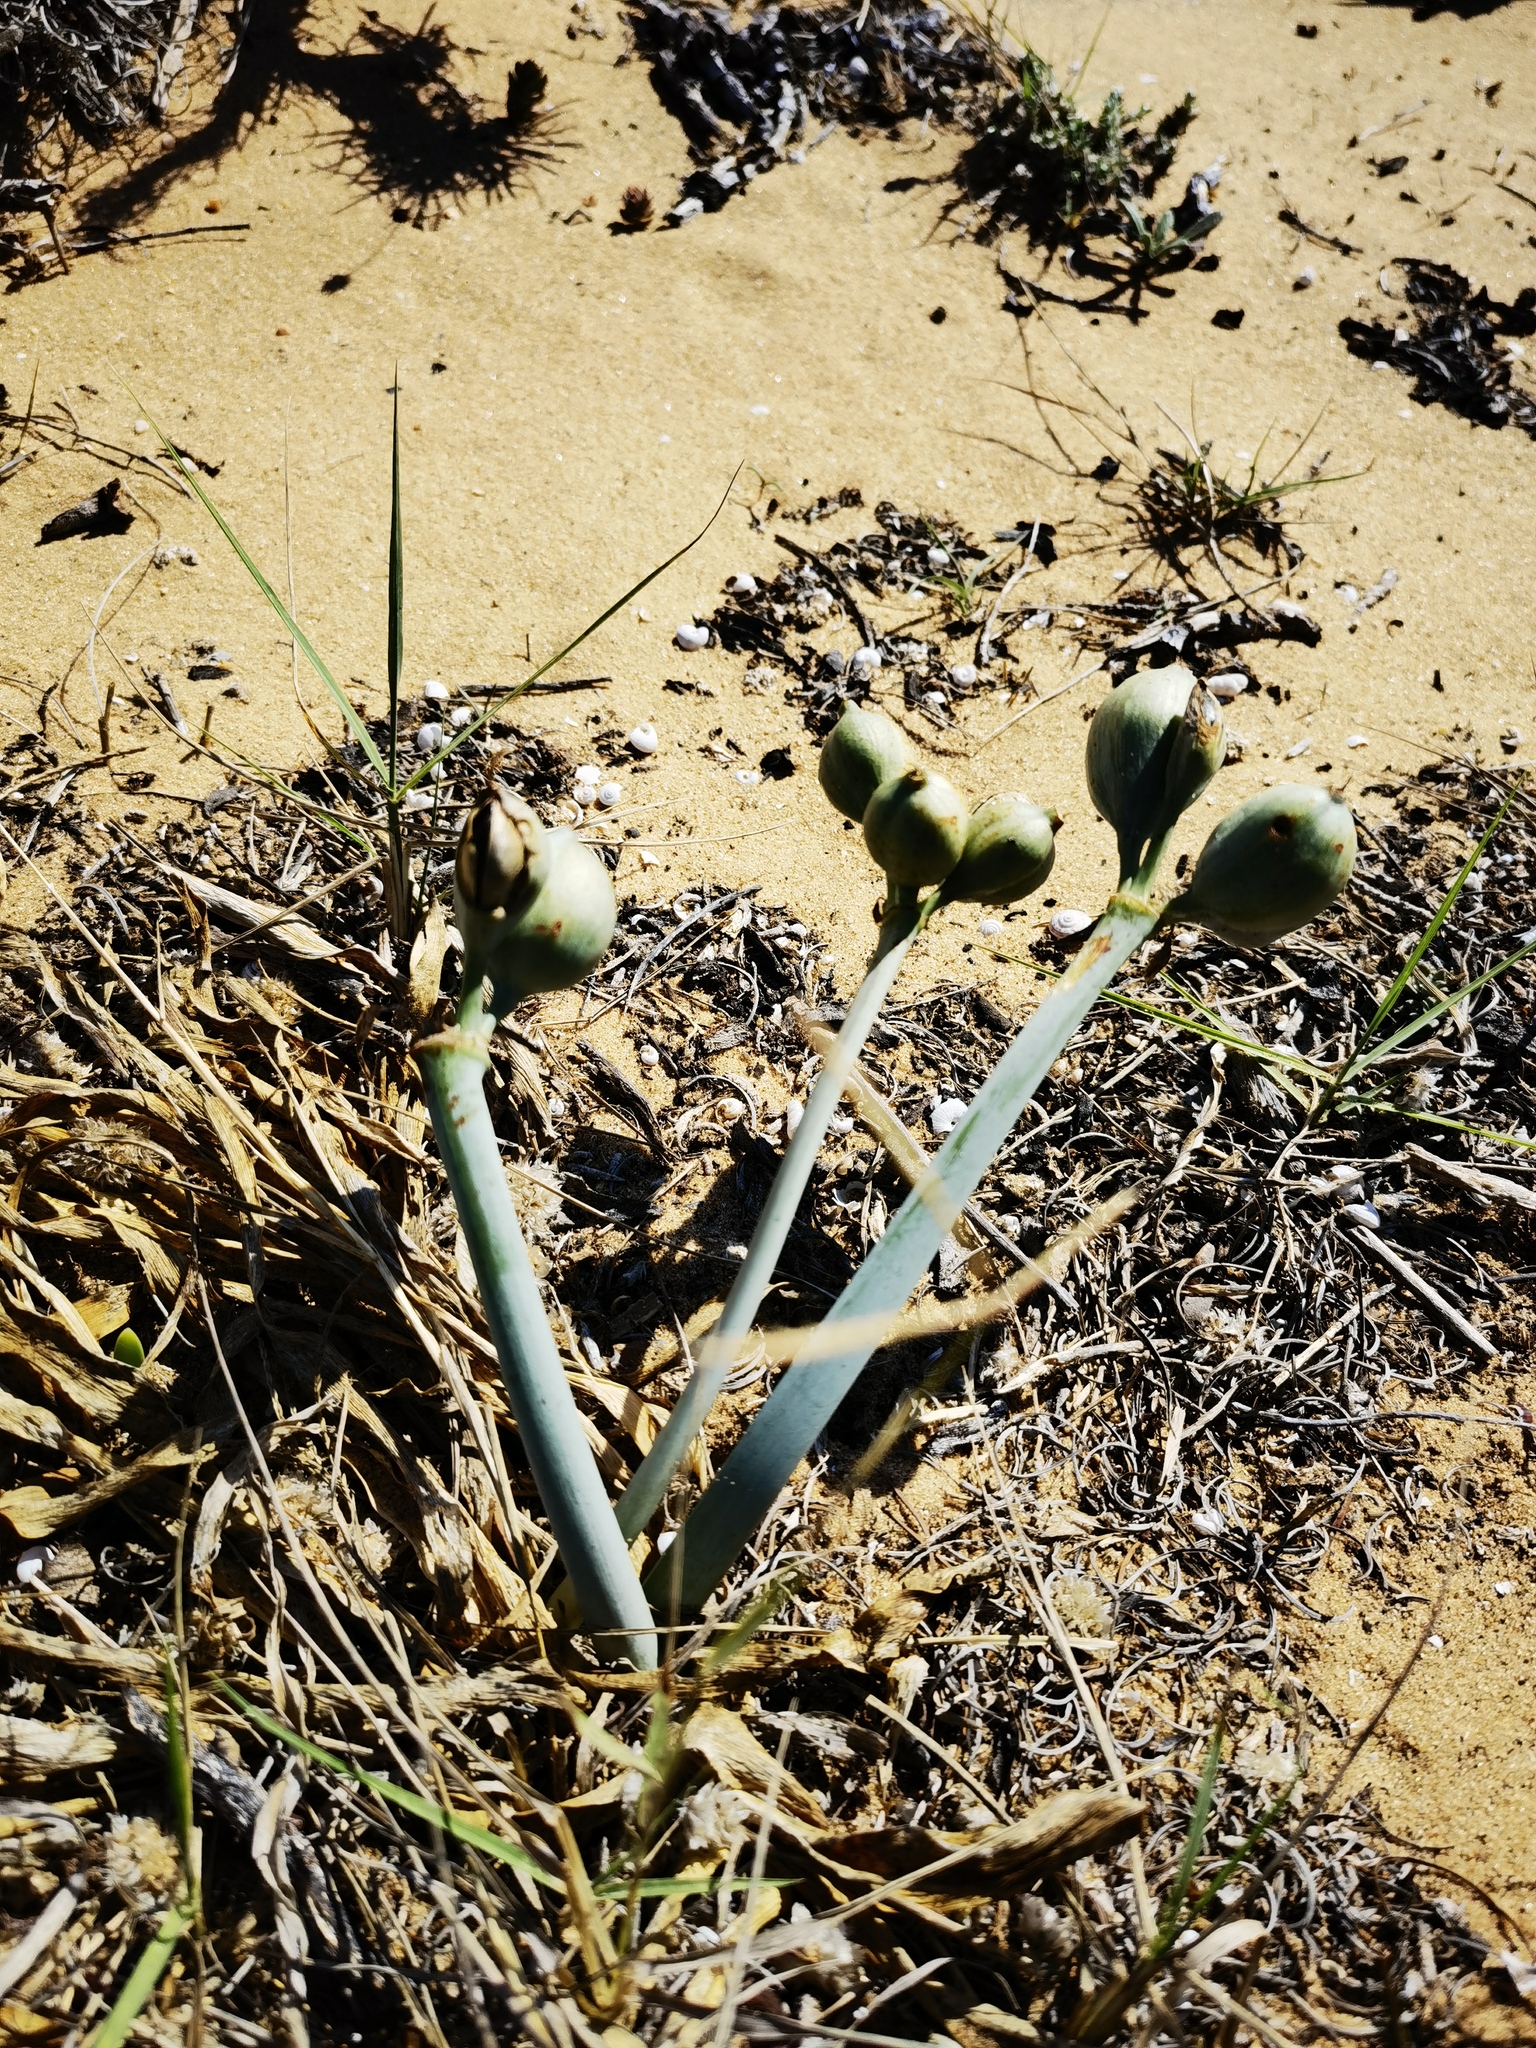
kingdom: Plantae
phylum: Tracheophyta
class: Liliopsida
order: Asparagales
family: Amaryllidaceae
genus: Pancratium
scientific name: Pancratium maritimum
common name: Sea-daffodil
